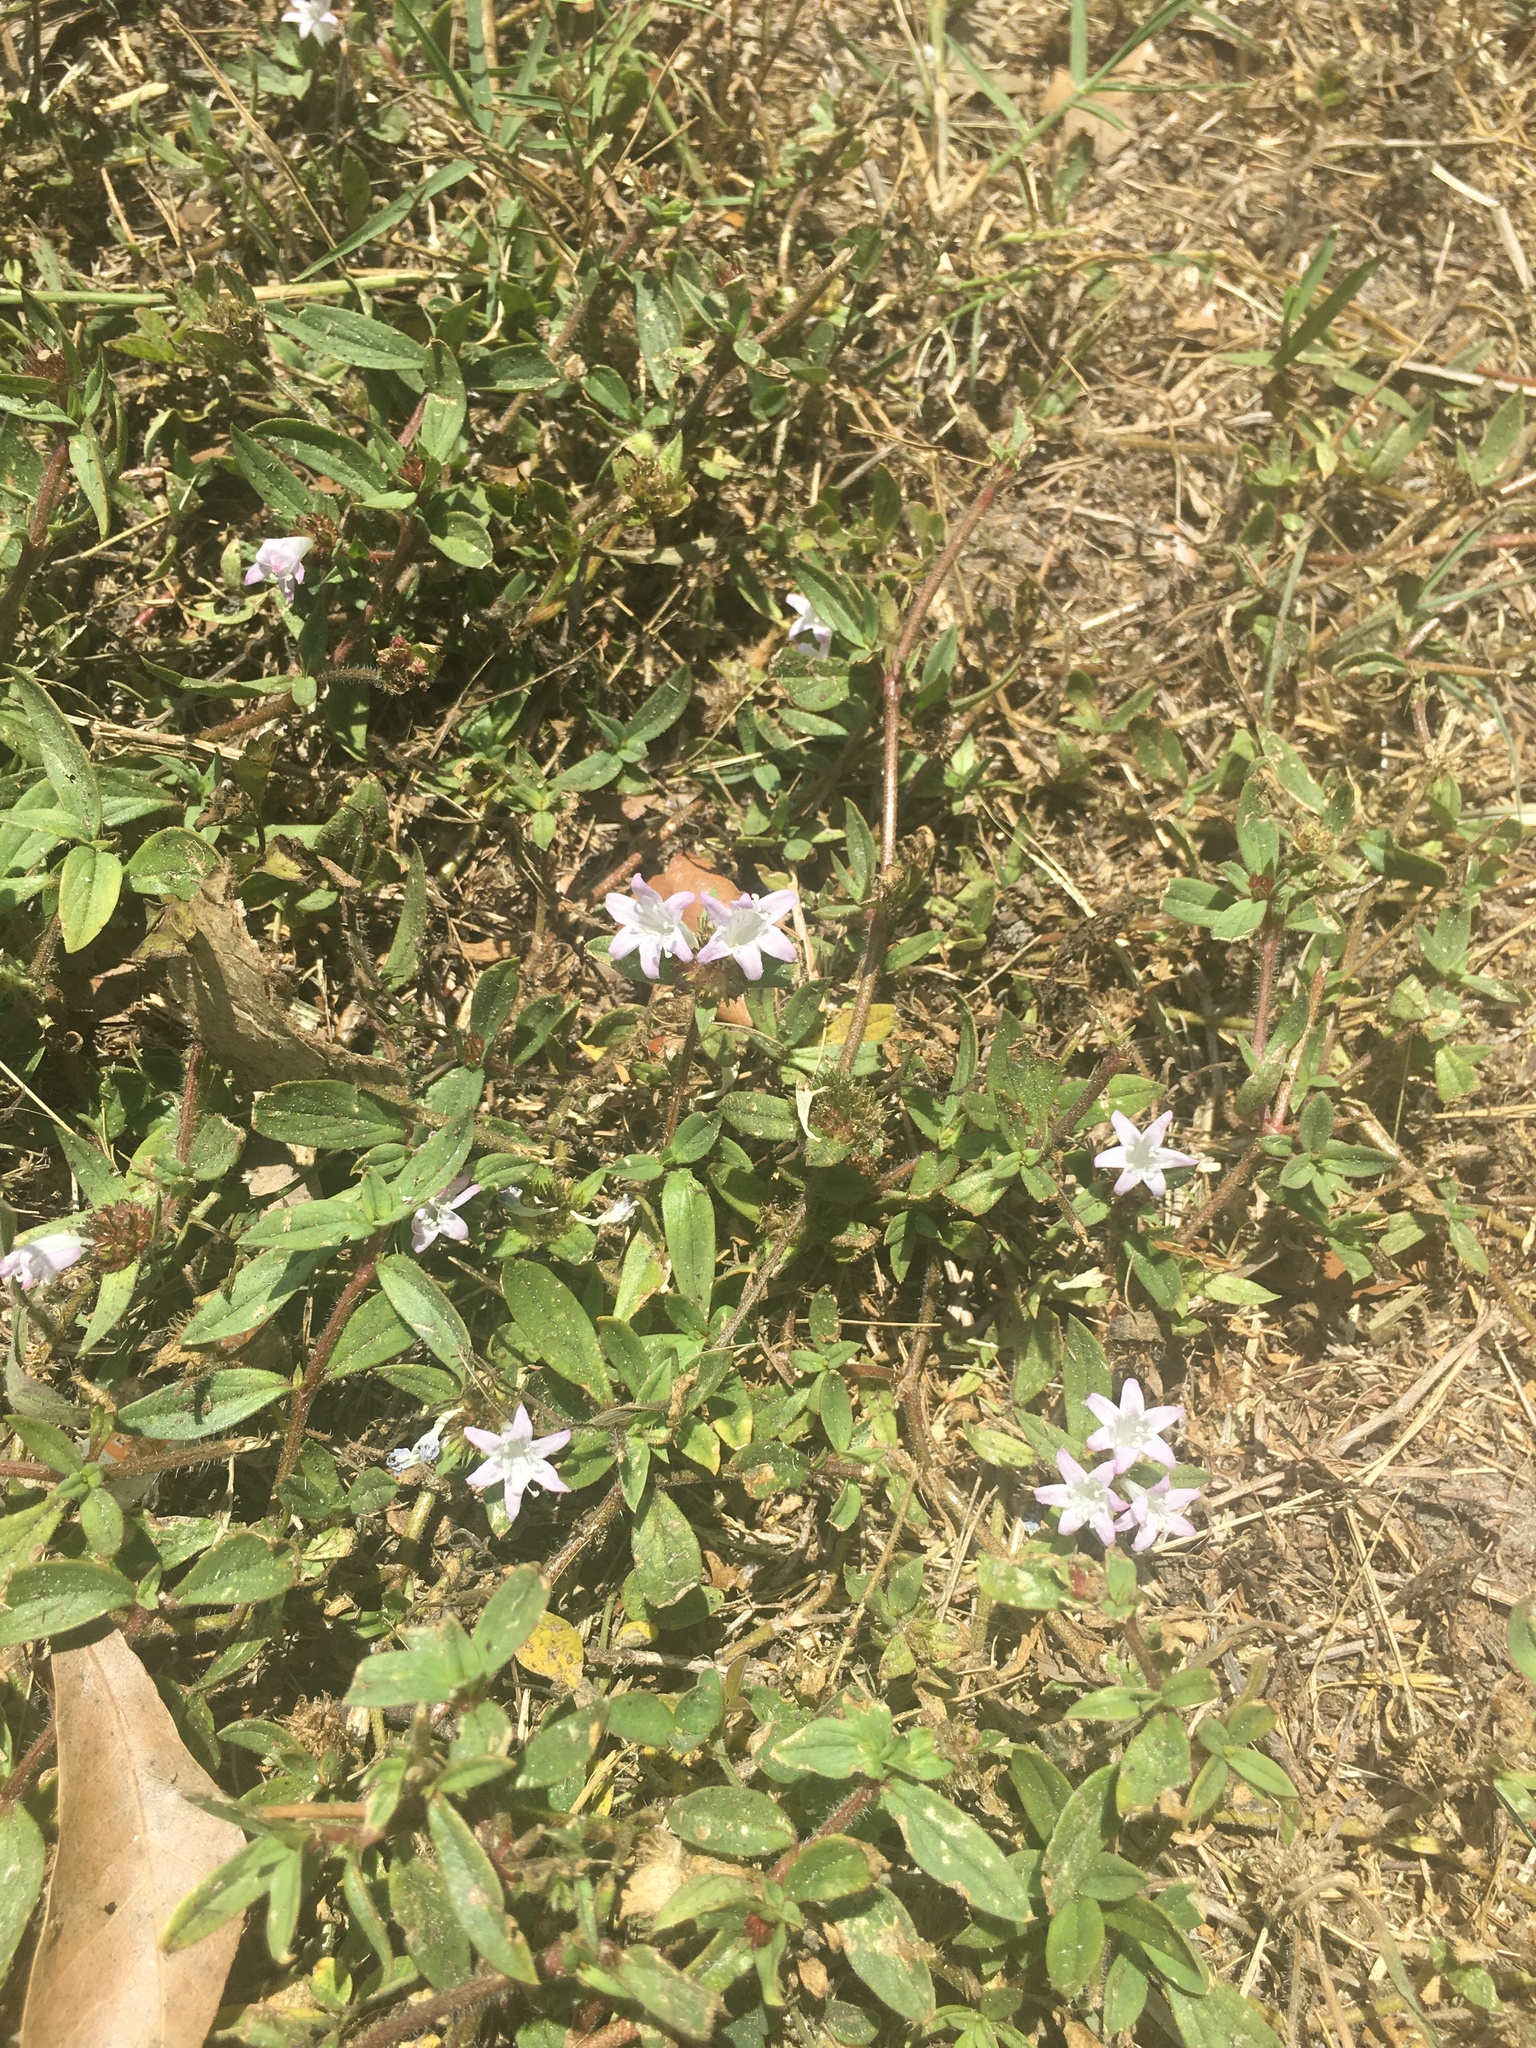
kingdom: Plantae
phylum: Tracheophyta
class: Magnoliopsida
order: Gentianales
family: Rubiaceae
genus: Richardia
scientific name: Richardia grandiflora
